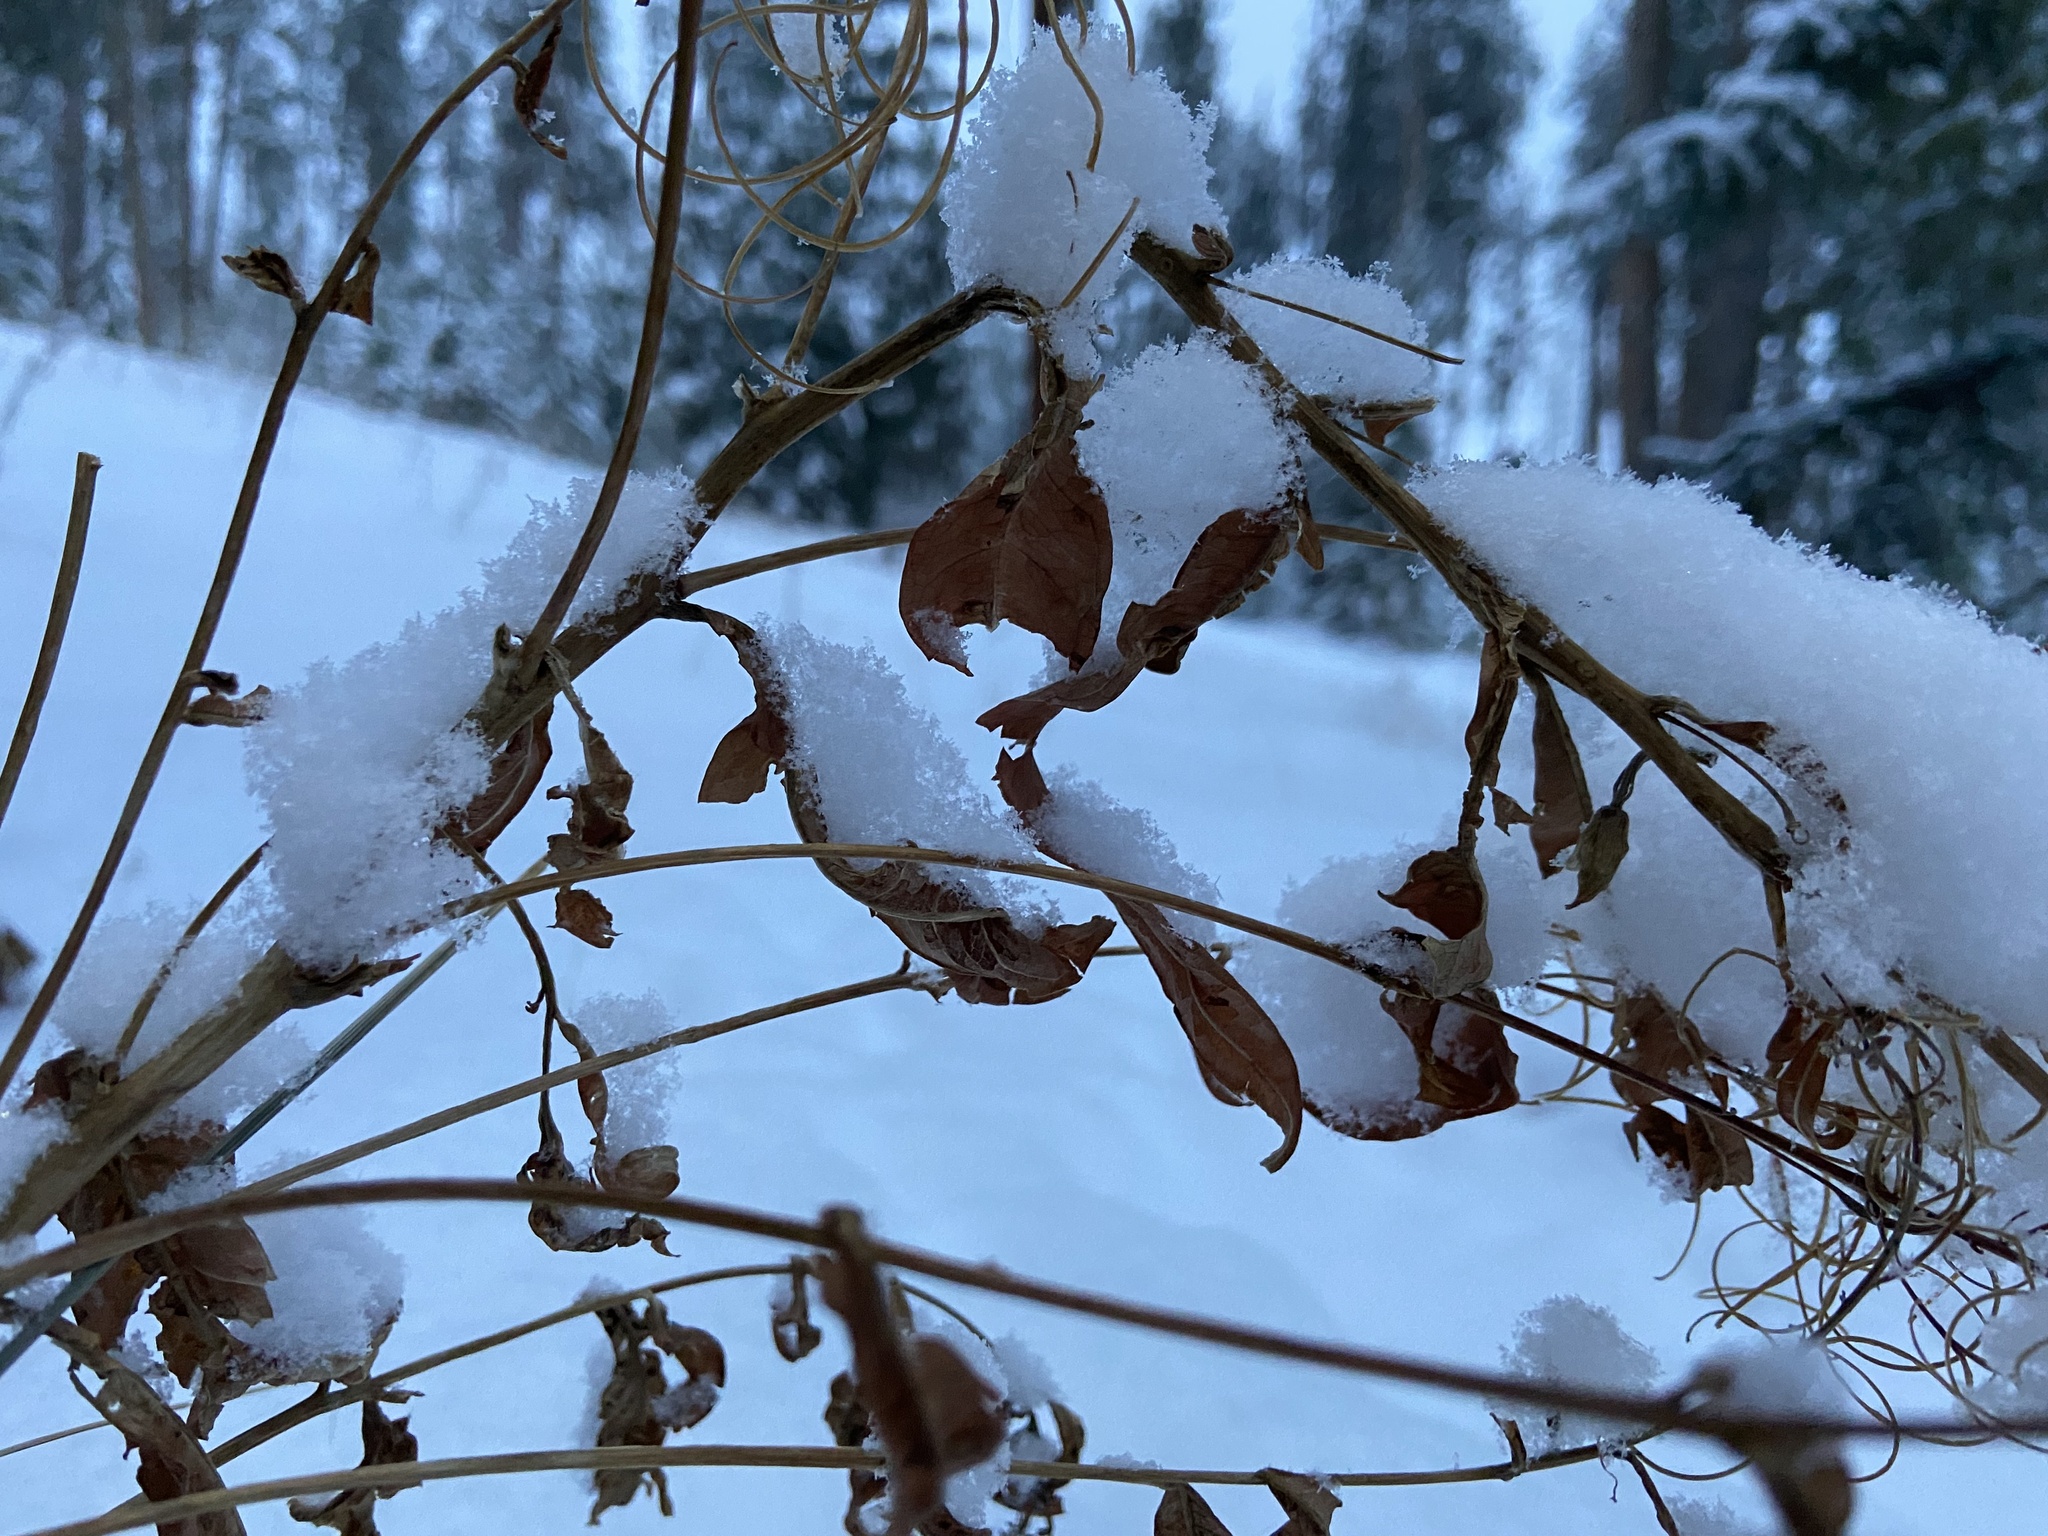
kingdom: Plantae
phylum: Tracheophyta
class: Magnoliopsida
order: Myrtales
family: Onagraceae
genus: Chamaenerion
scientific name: Chamaenerion angustifolium
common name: Fireweed
